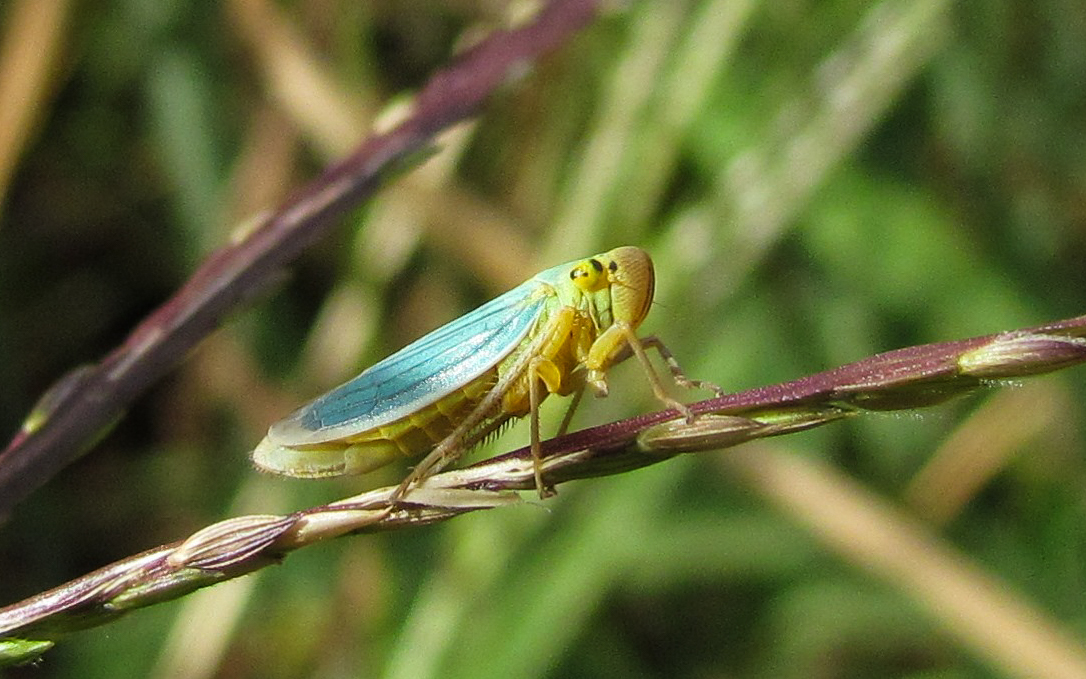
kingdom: Animalia
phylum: Arthropoda
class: Insecta
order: Hemiptera
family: Cicadellidae
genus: Cicadella
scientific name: Cicadella viridis
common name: Leafhopper
